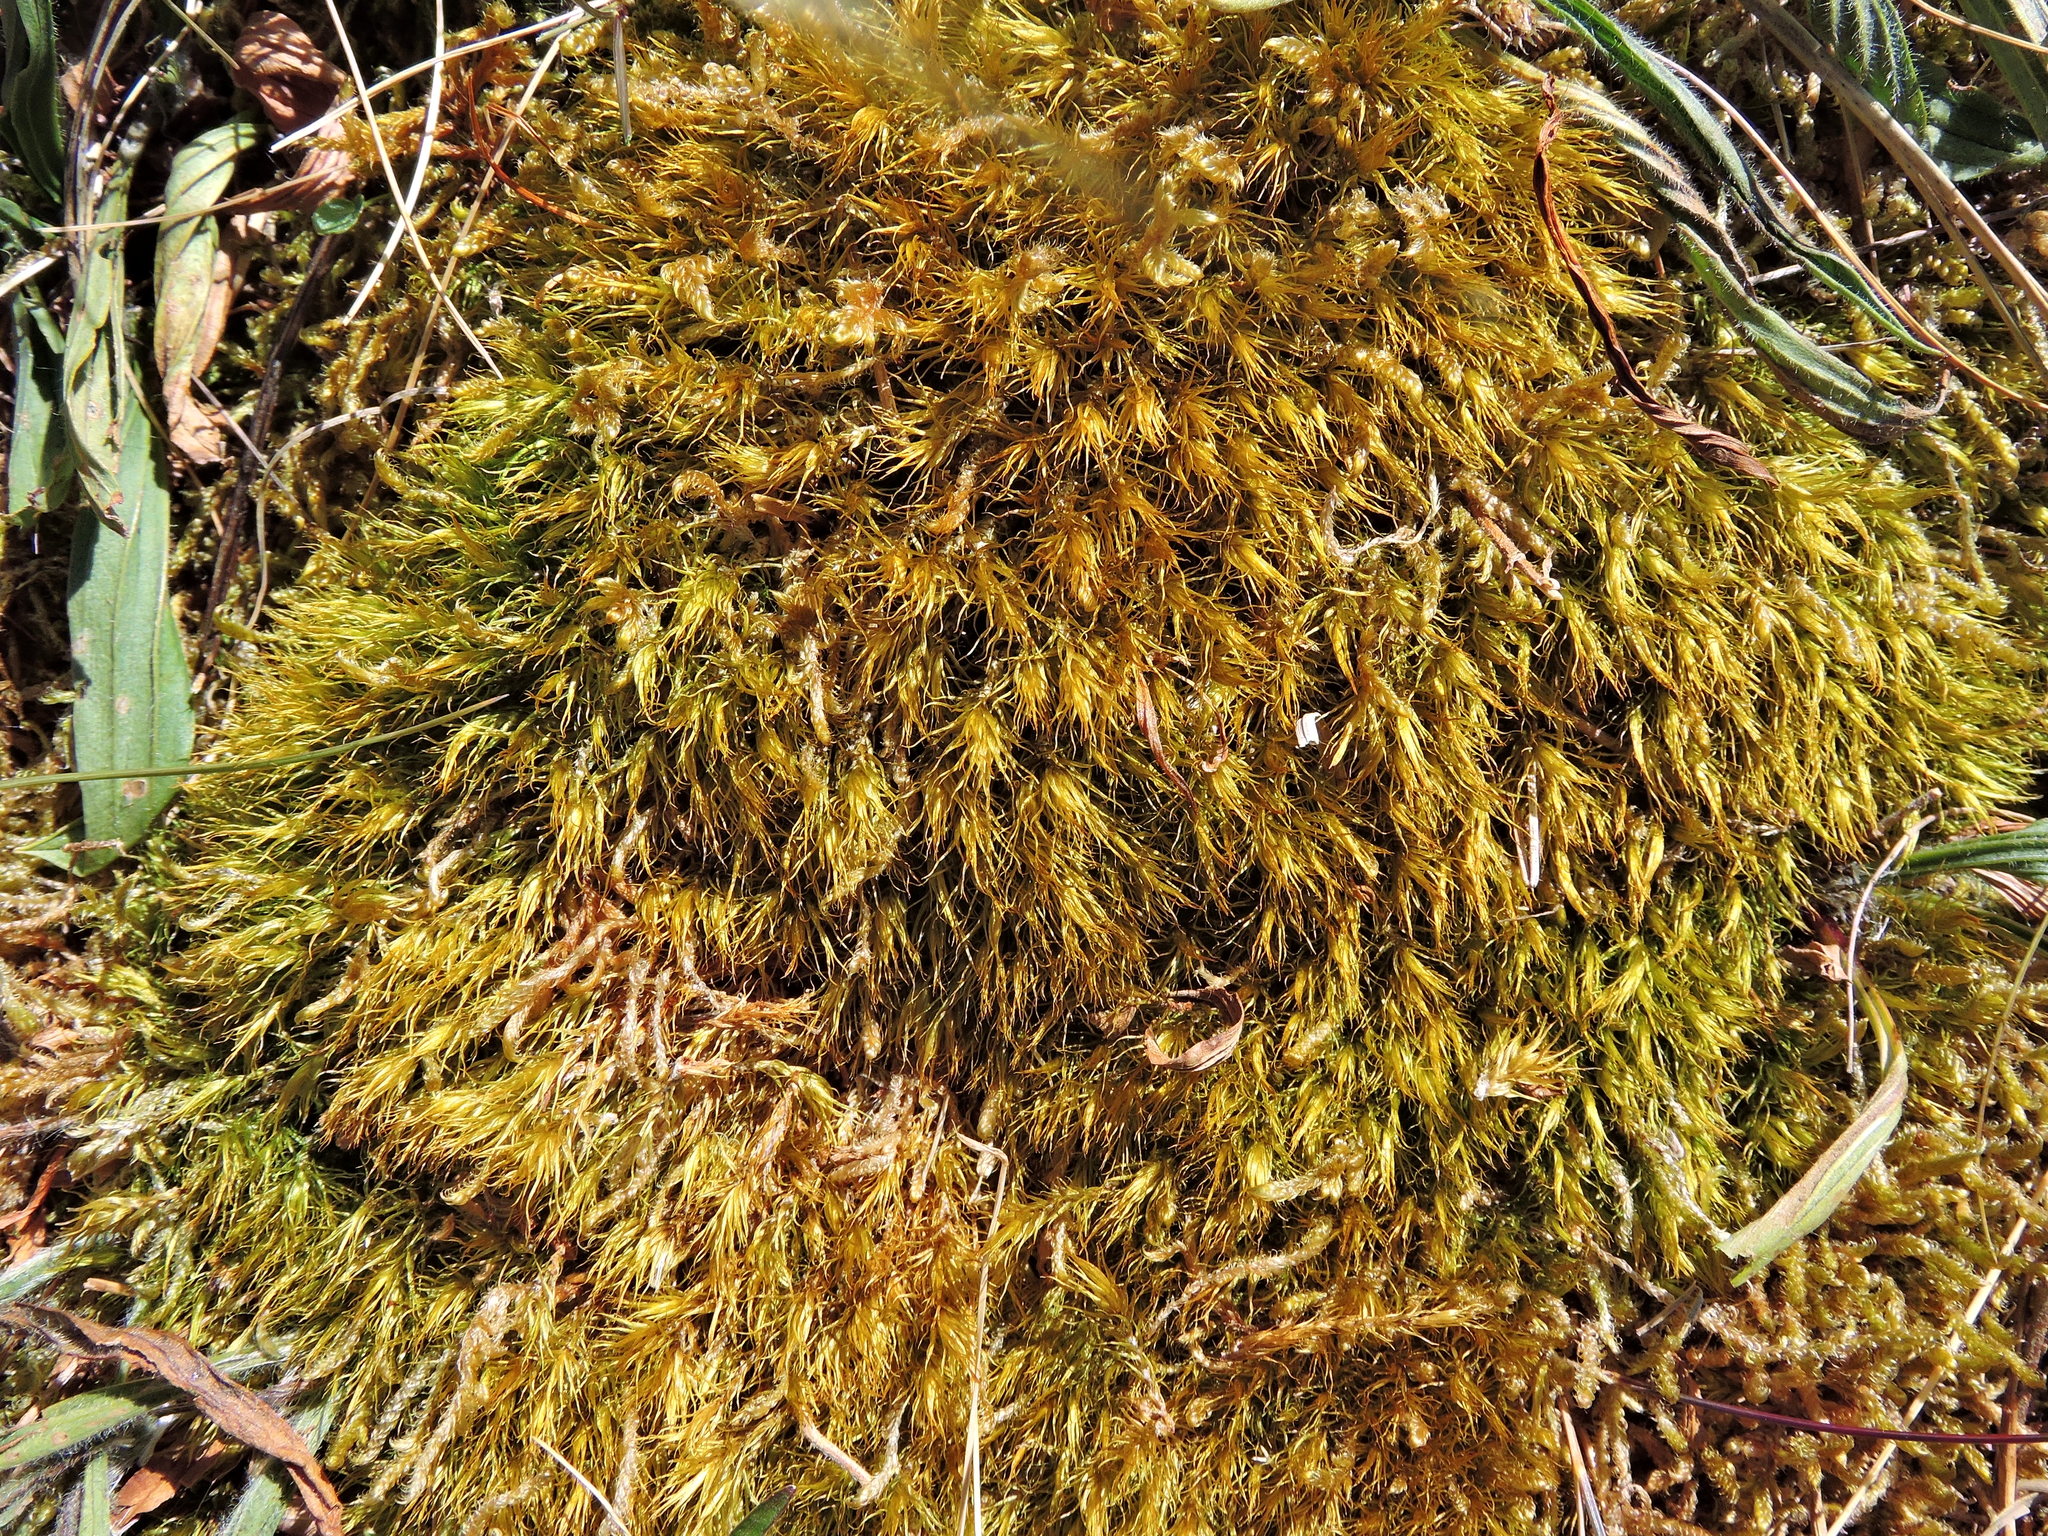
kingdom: Plantae
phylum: Bryophyta
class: Bryopsida
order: Dicranales
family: Dicranaceae
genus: Dicranum
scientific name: Dicranum scoparium
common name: Broom fork-moss
